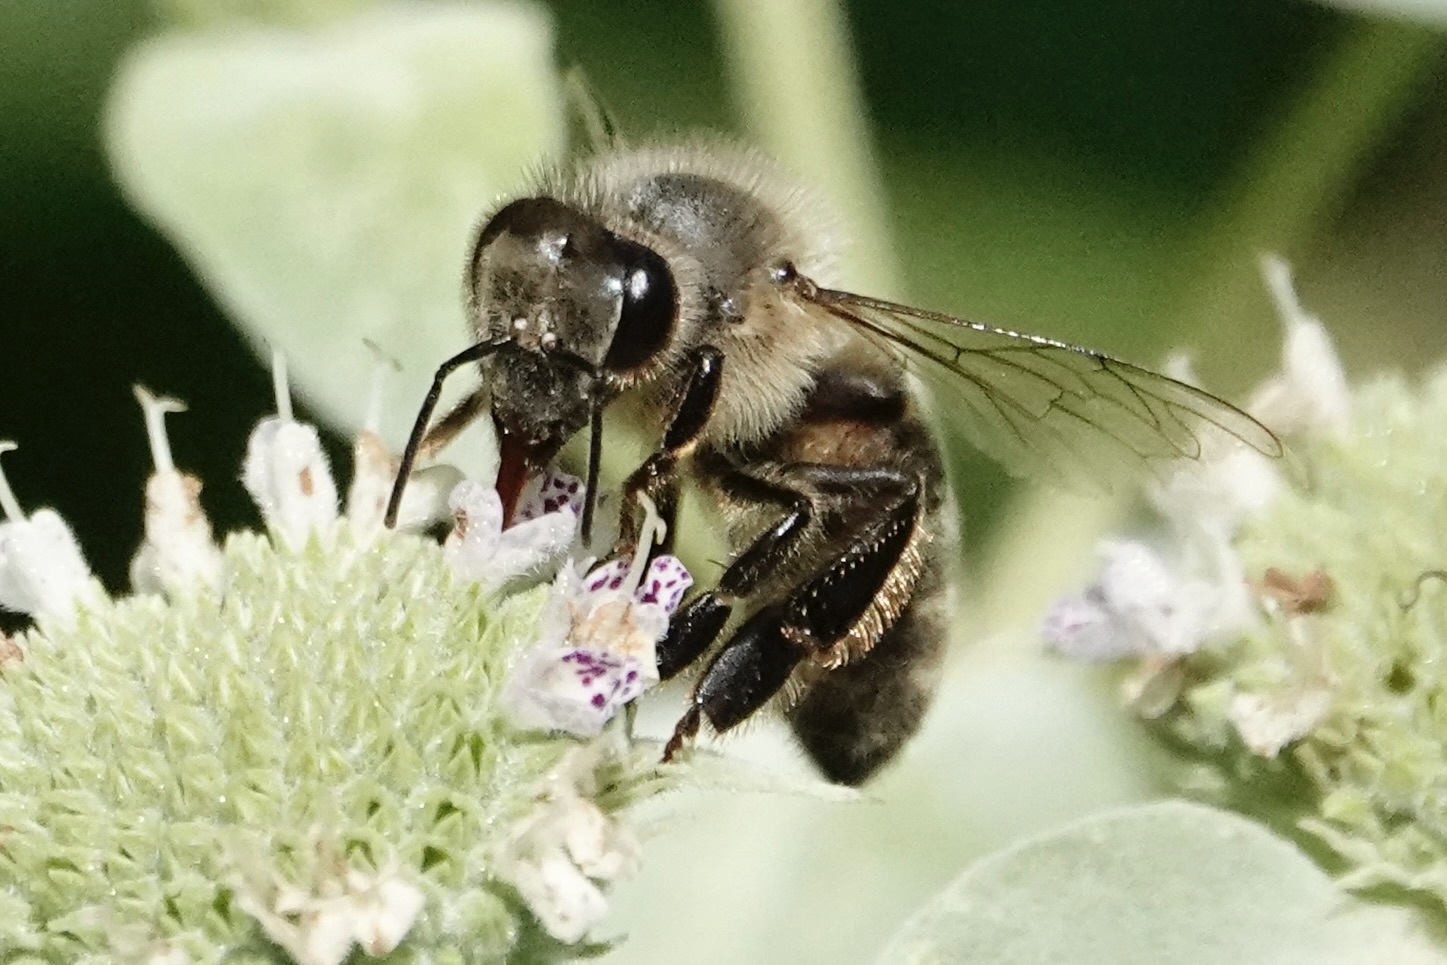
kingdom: Animalia
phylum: Arthropoda
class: Insecta
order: Hymenoptera
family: Apidae
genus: Apis
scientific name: Apis mellifera
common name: Honey bee
